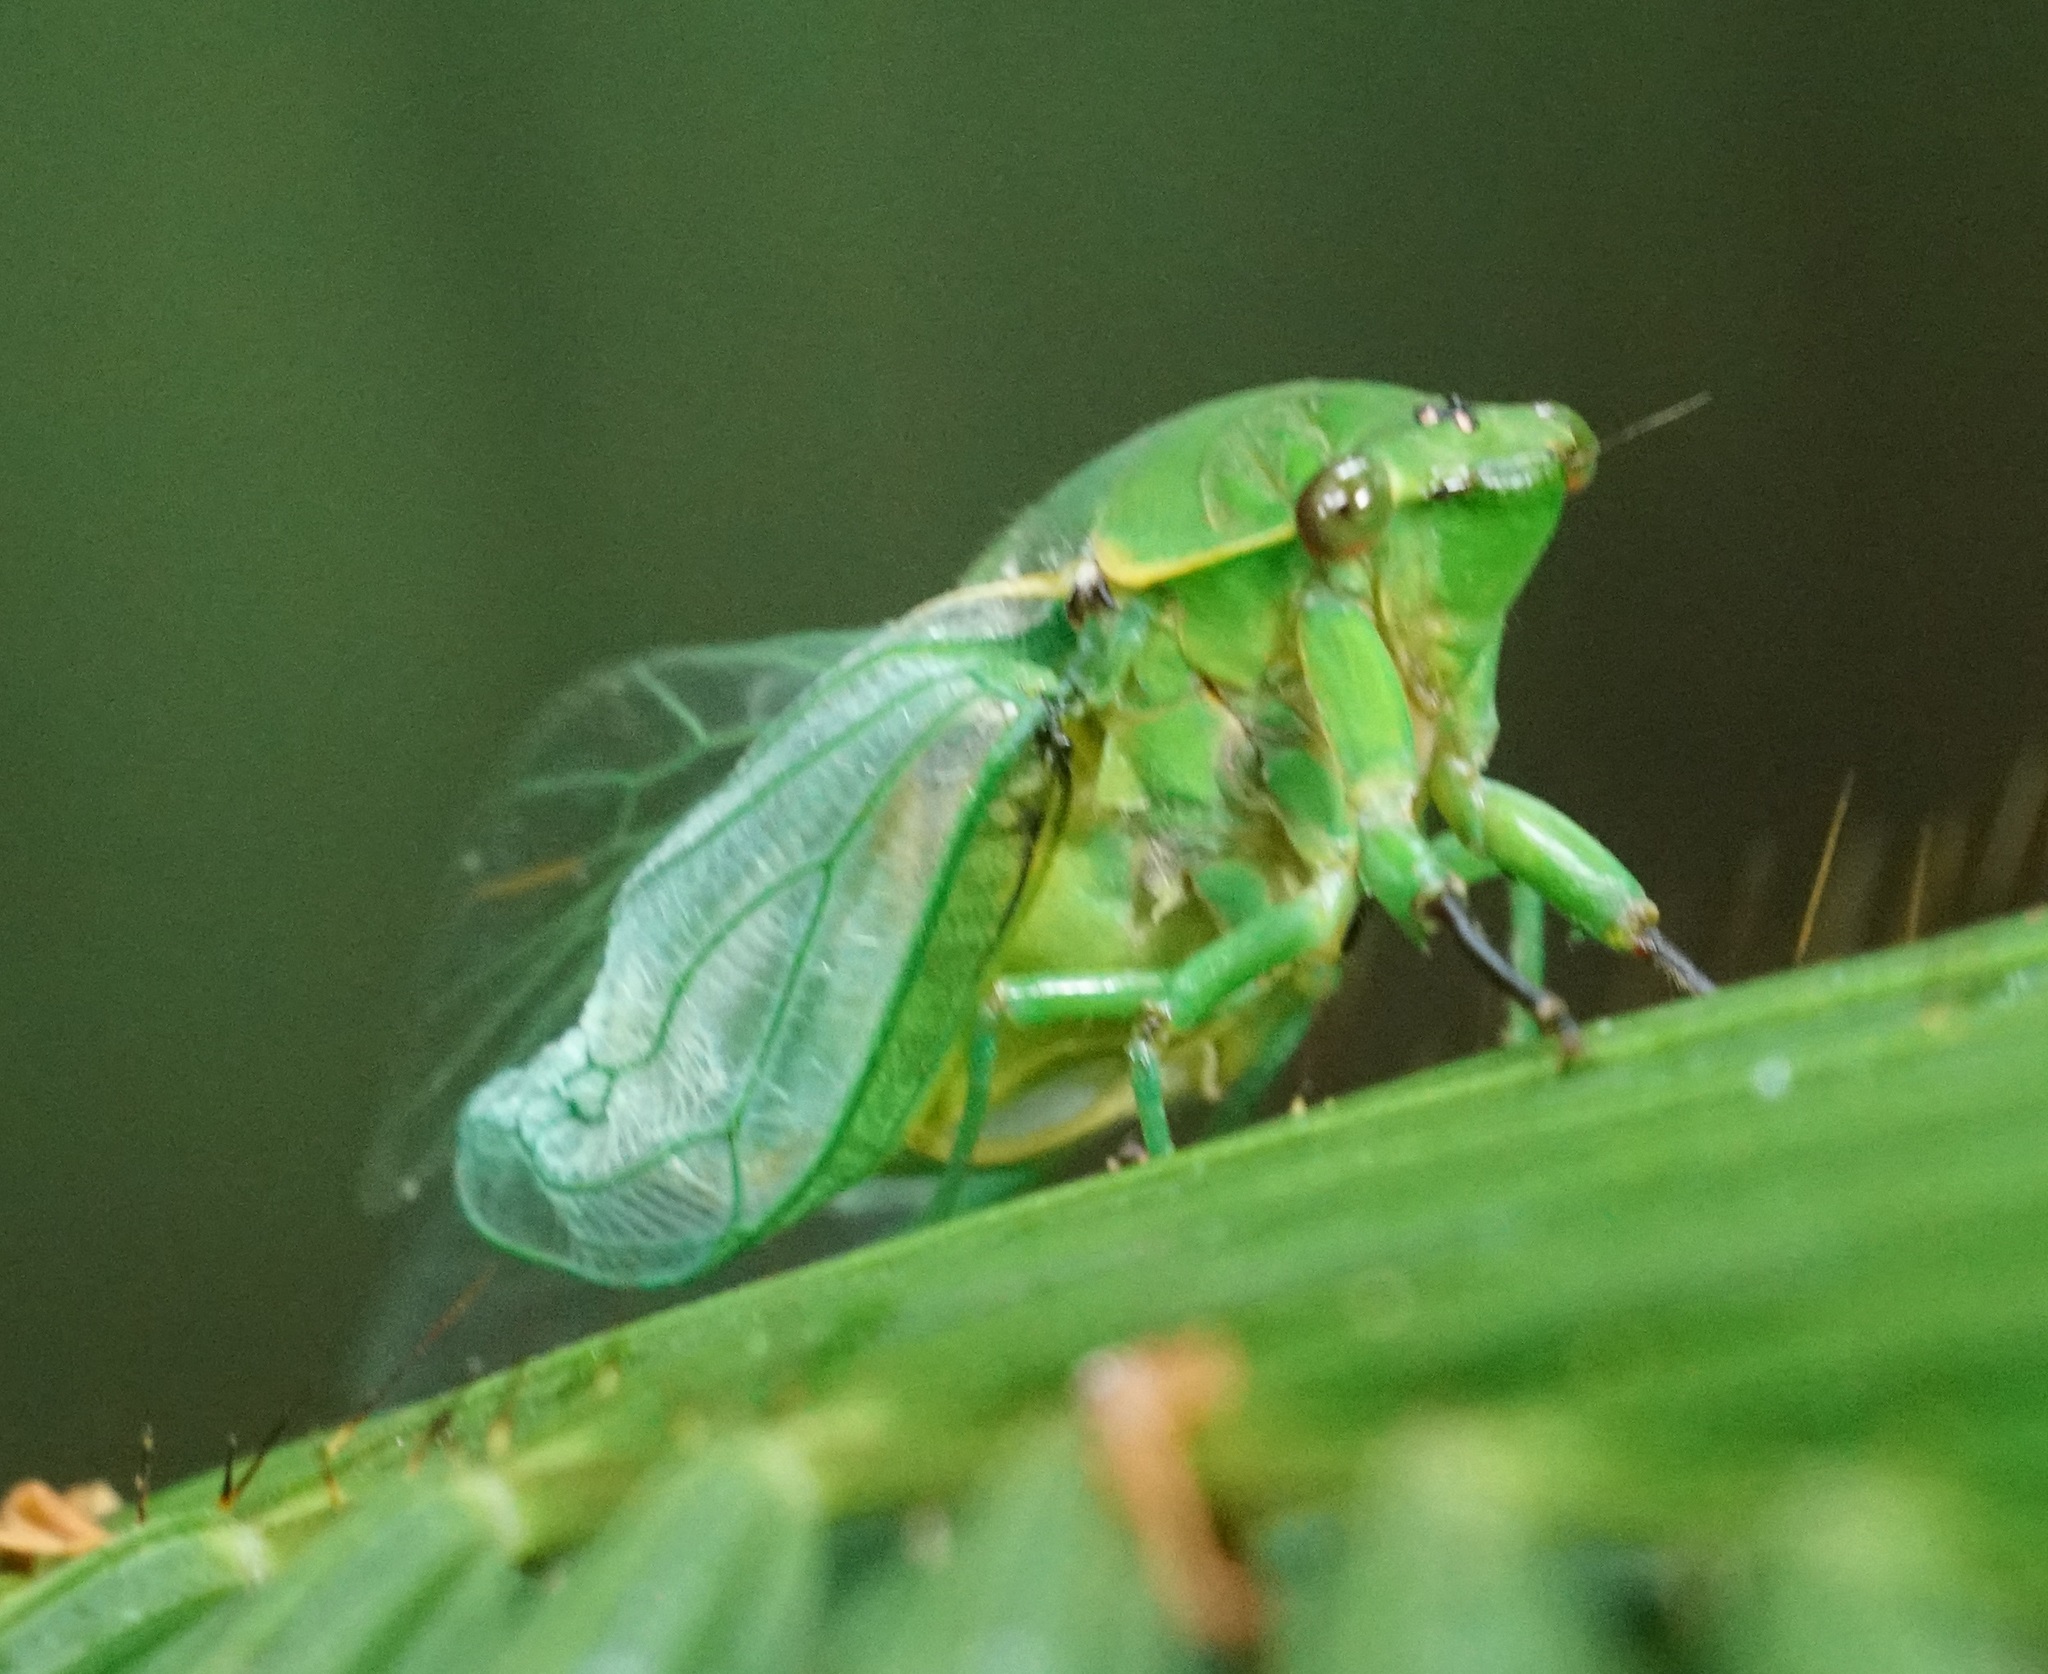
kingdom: Animalia
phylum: Arthropoda
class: Insecta
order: Hemiptera
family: Cicadidae
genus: Cyclochila
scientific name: Cyclochila virens
